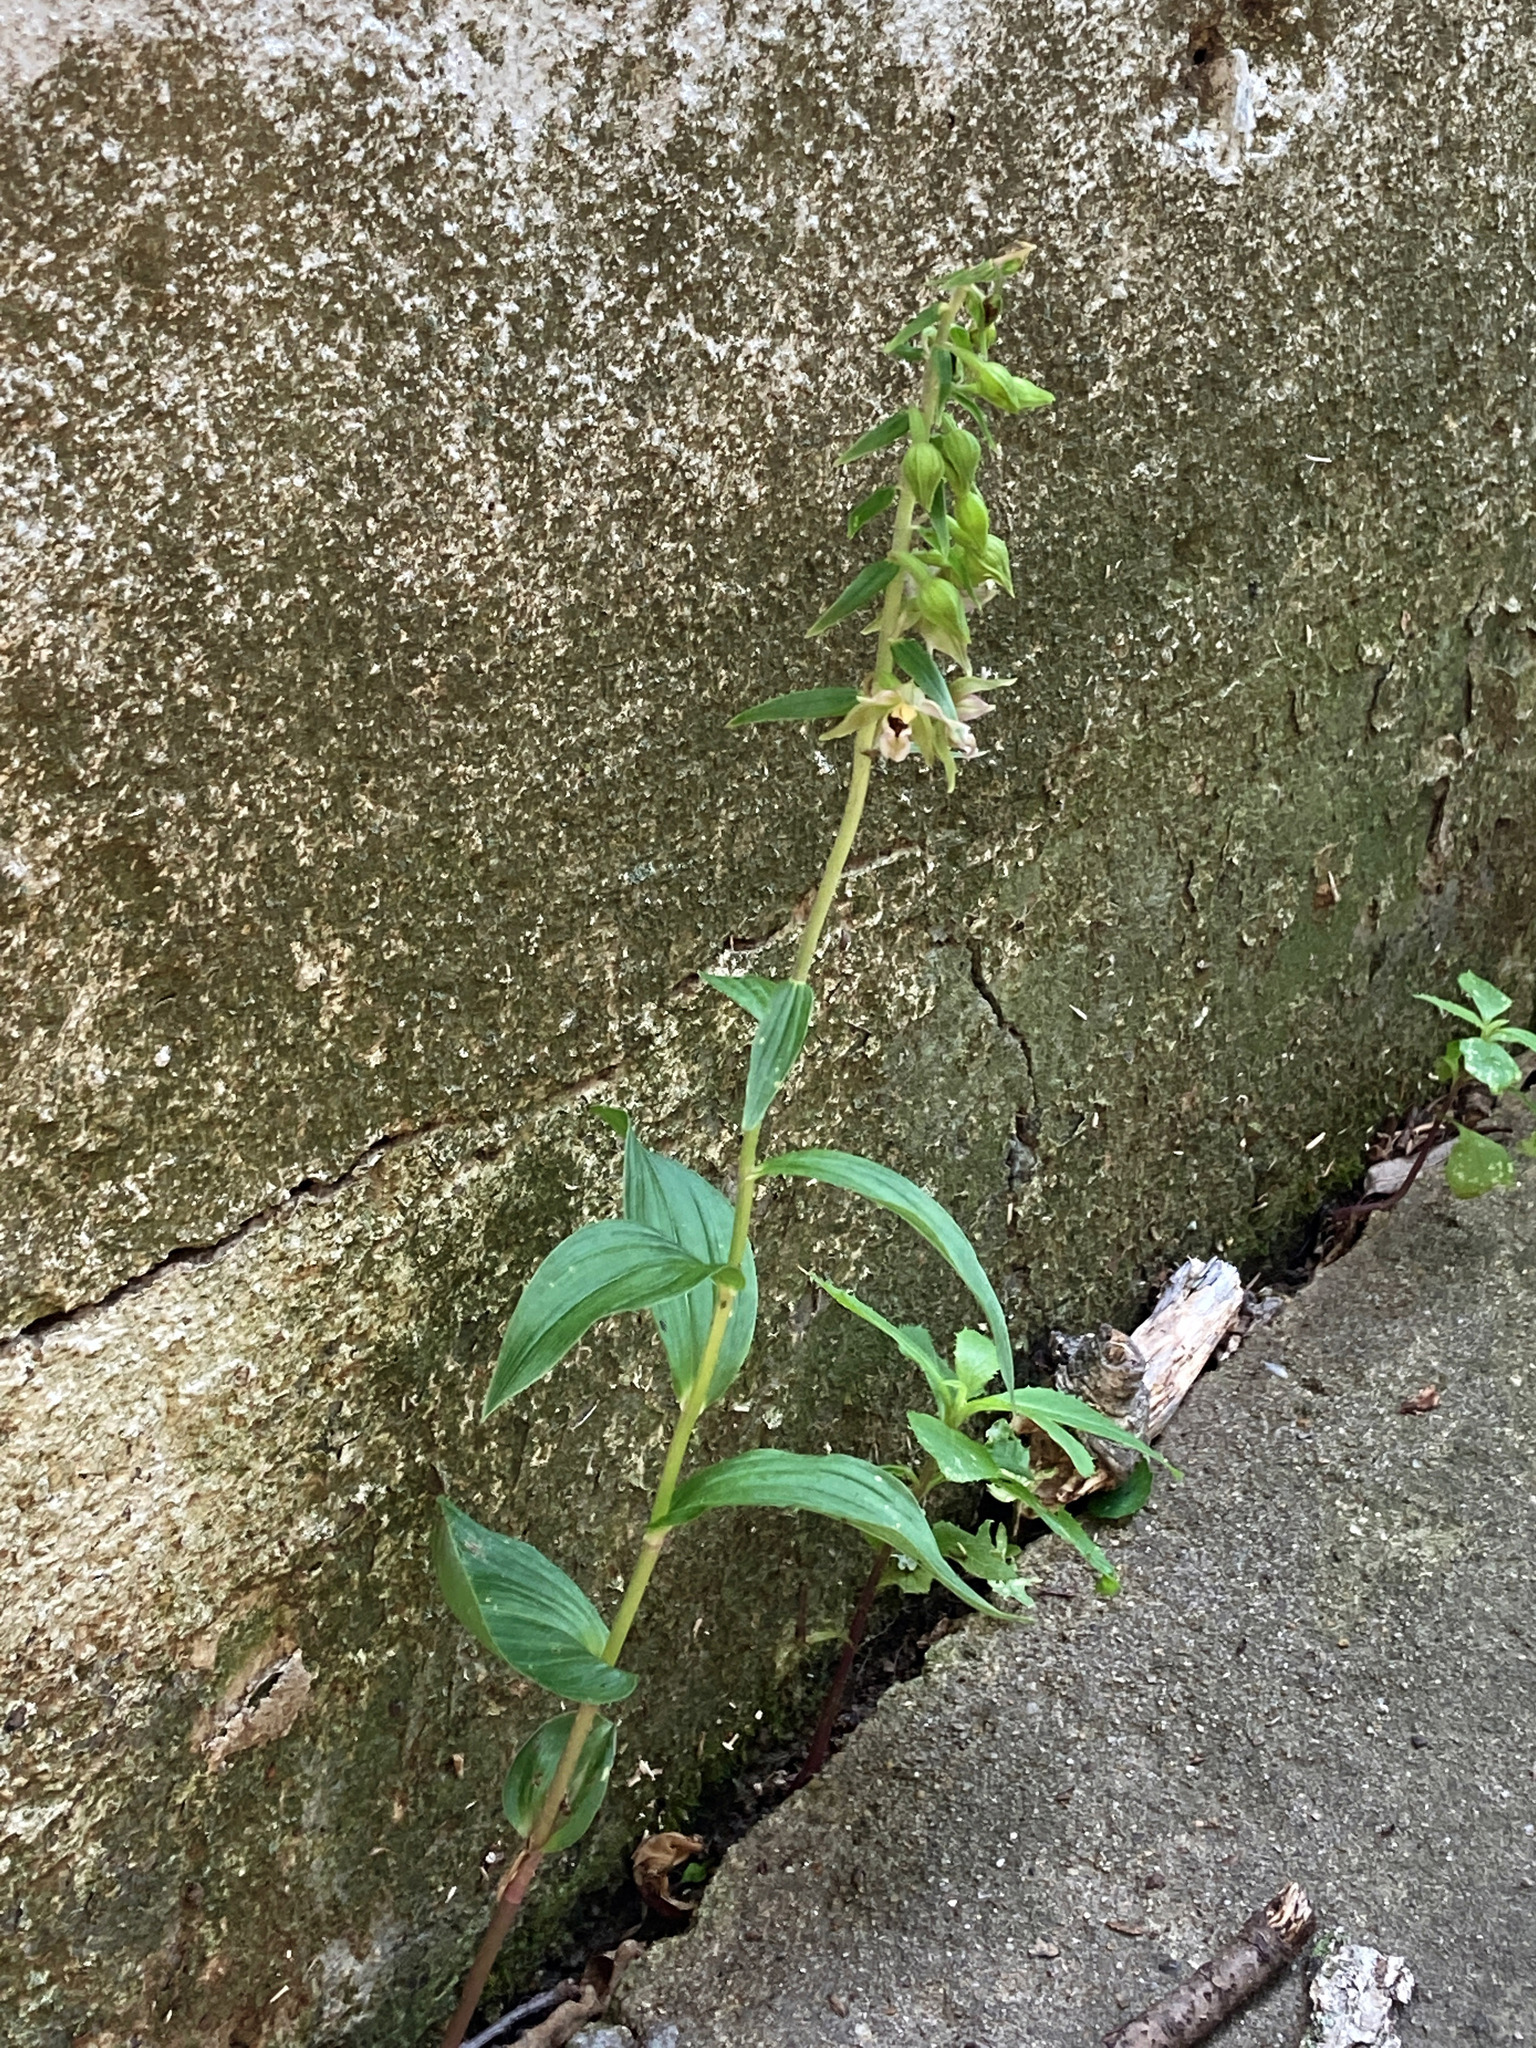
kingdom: Plantae
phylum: Tracheophyta
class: Liliopsida
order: Asparagales
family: Orchidaceae
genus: Epipactis
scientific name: Epipactis helleborine
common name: Broad-leaved helleborine
